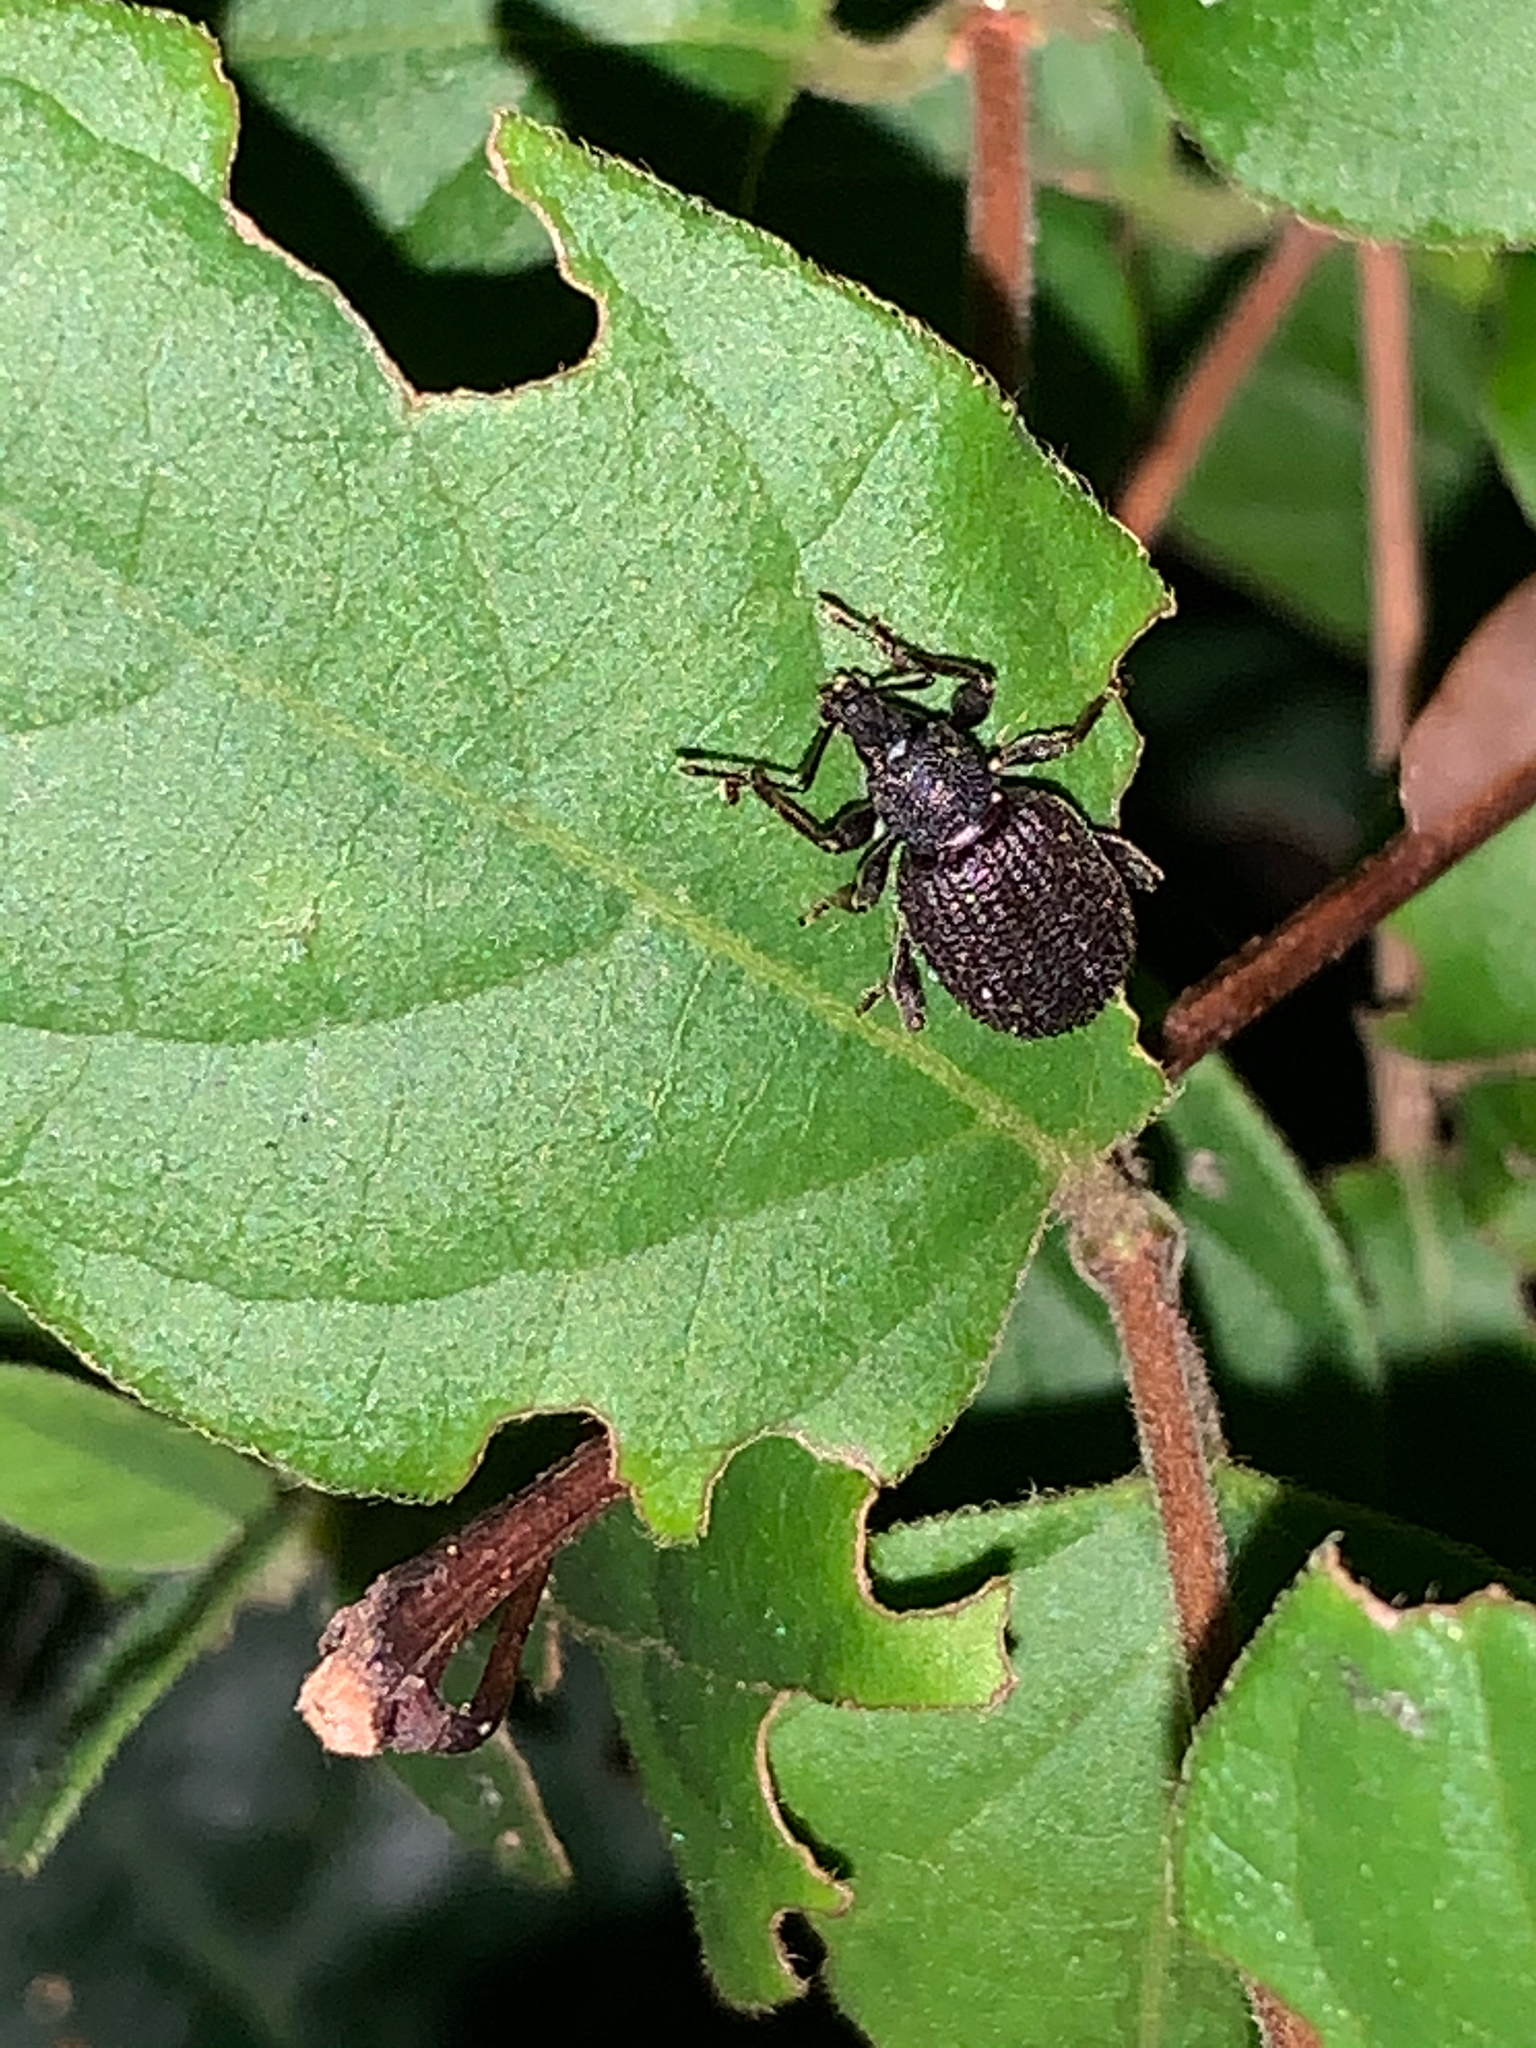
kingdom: Animalia
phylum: Arthropoda
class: Insecta
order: Coleoptera
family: Curculionidae
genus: Otiorhynchus
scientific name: Otiorhynchus rugosostriatus
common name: Weevil
